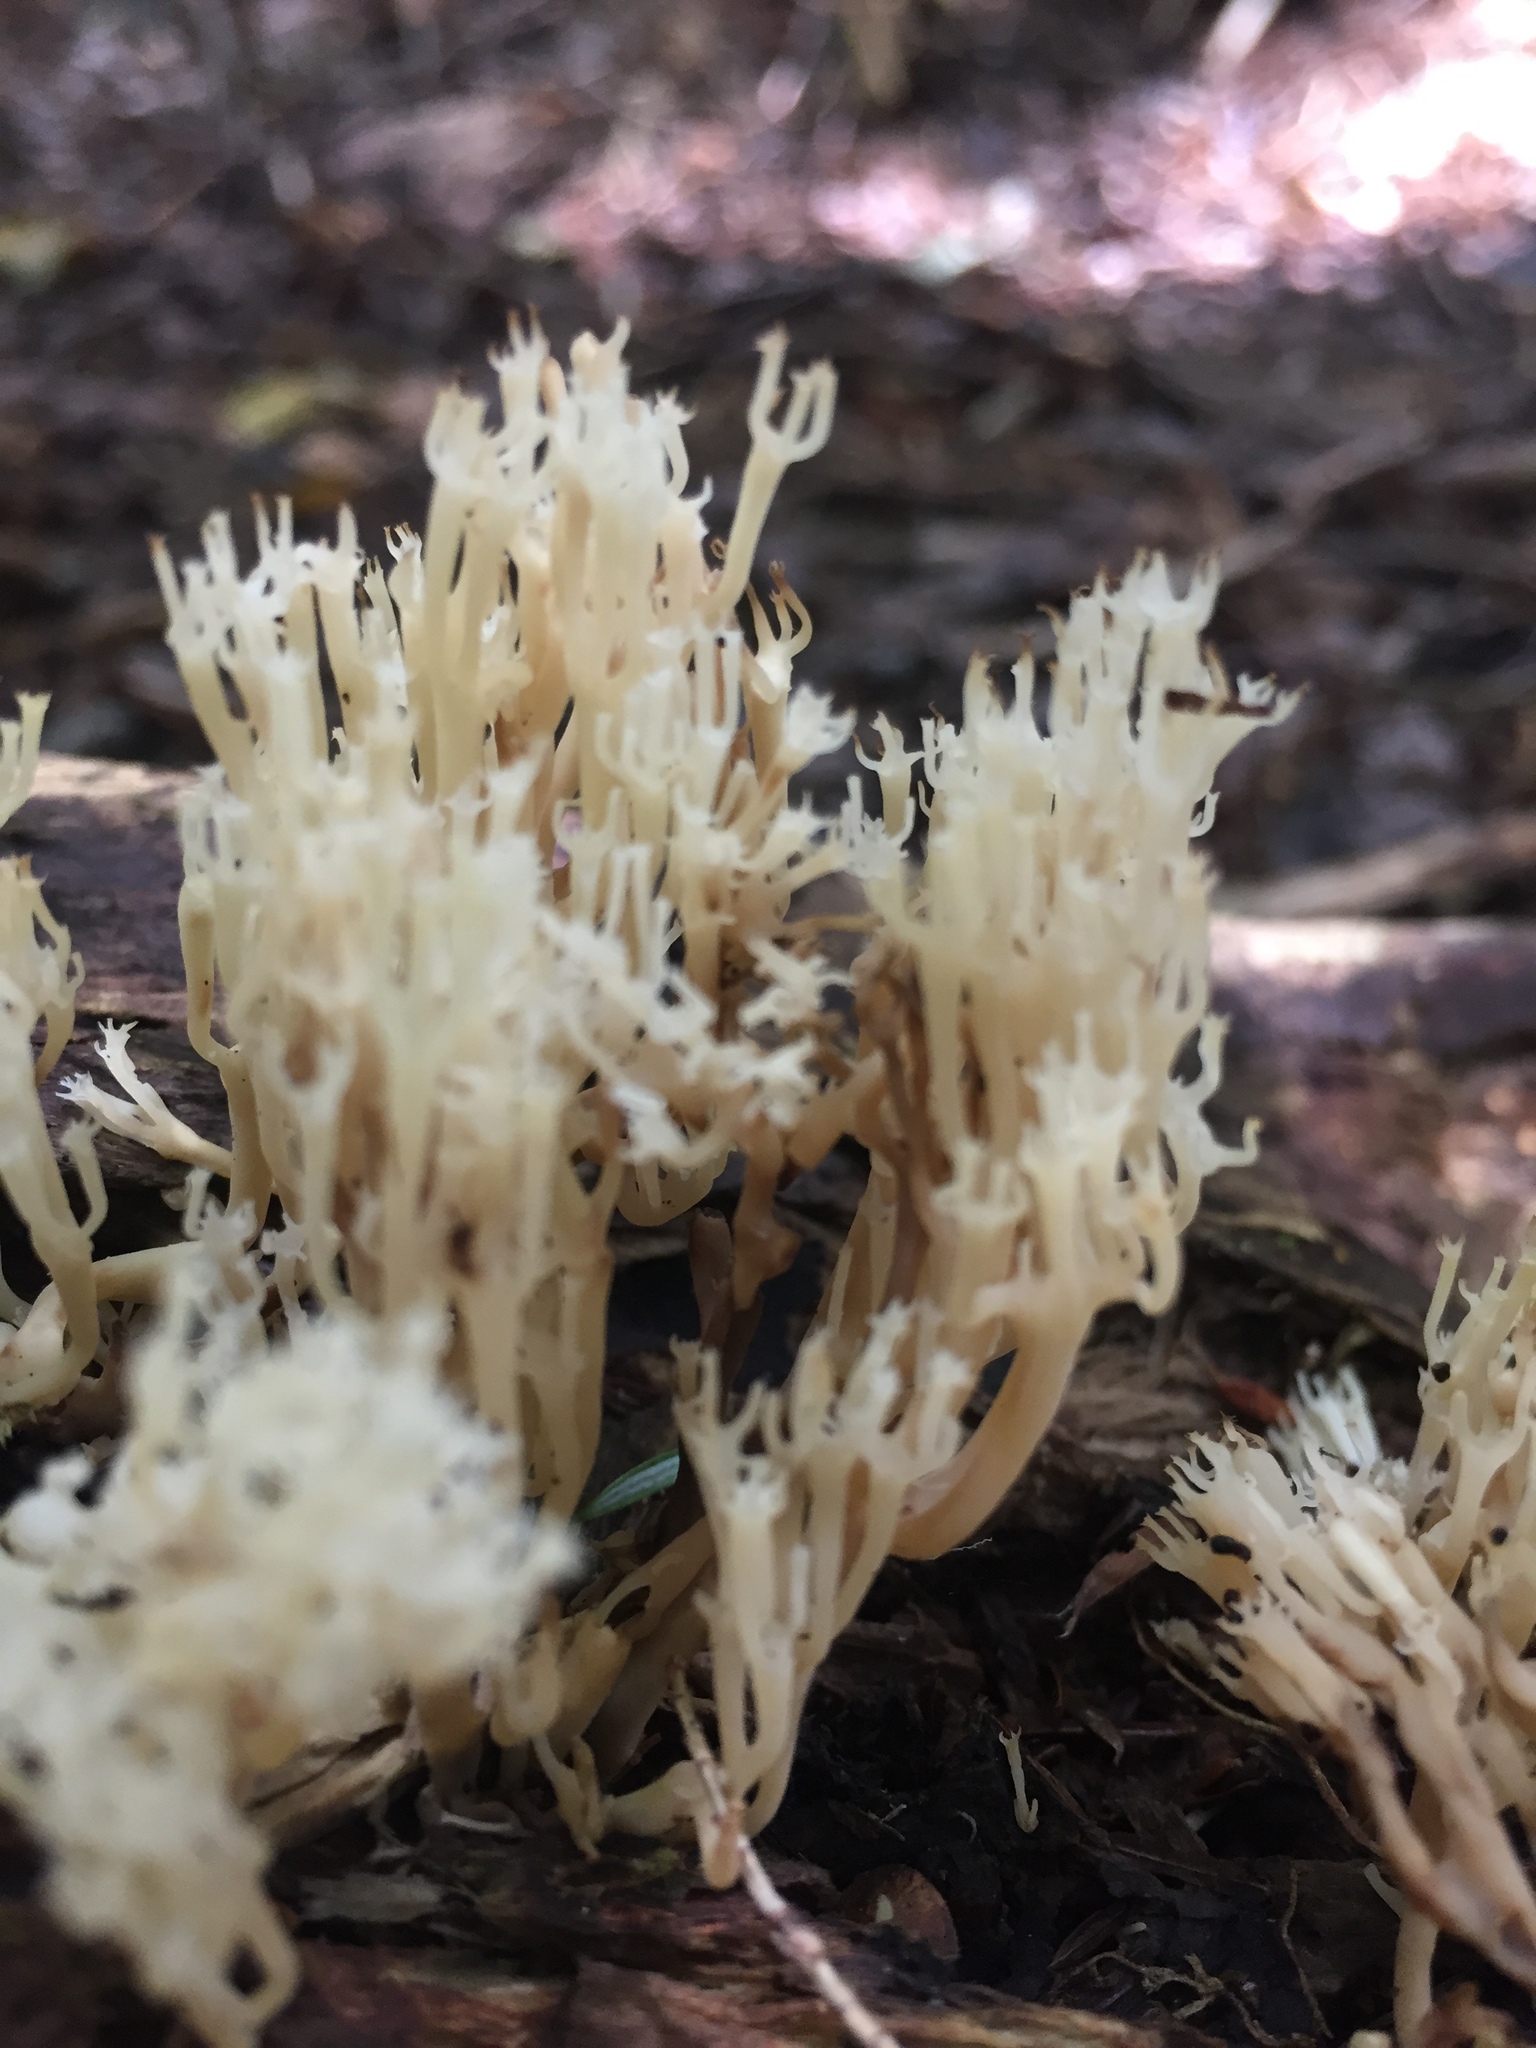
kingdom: Fungi
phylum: Basidiomycota
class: Agaricomycetes
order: Russulales
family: Auriscalpiaceae
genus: Artomyces
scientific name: Artomyces pyxidatus
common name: Crown-tipped coral fungus
